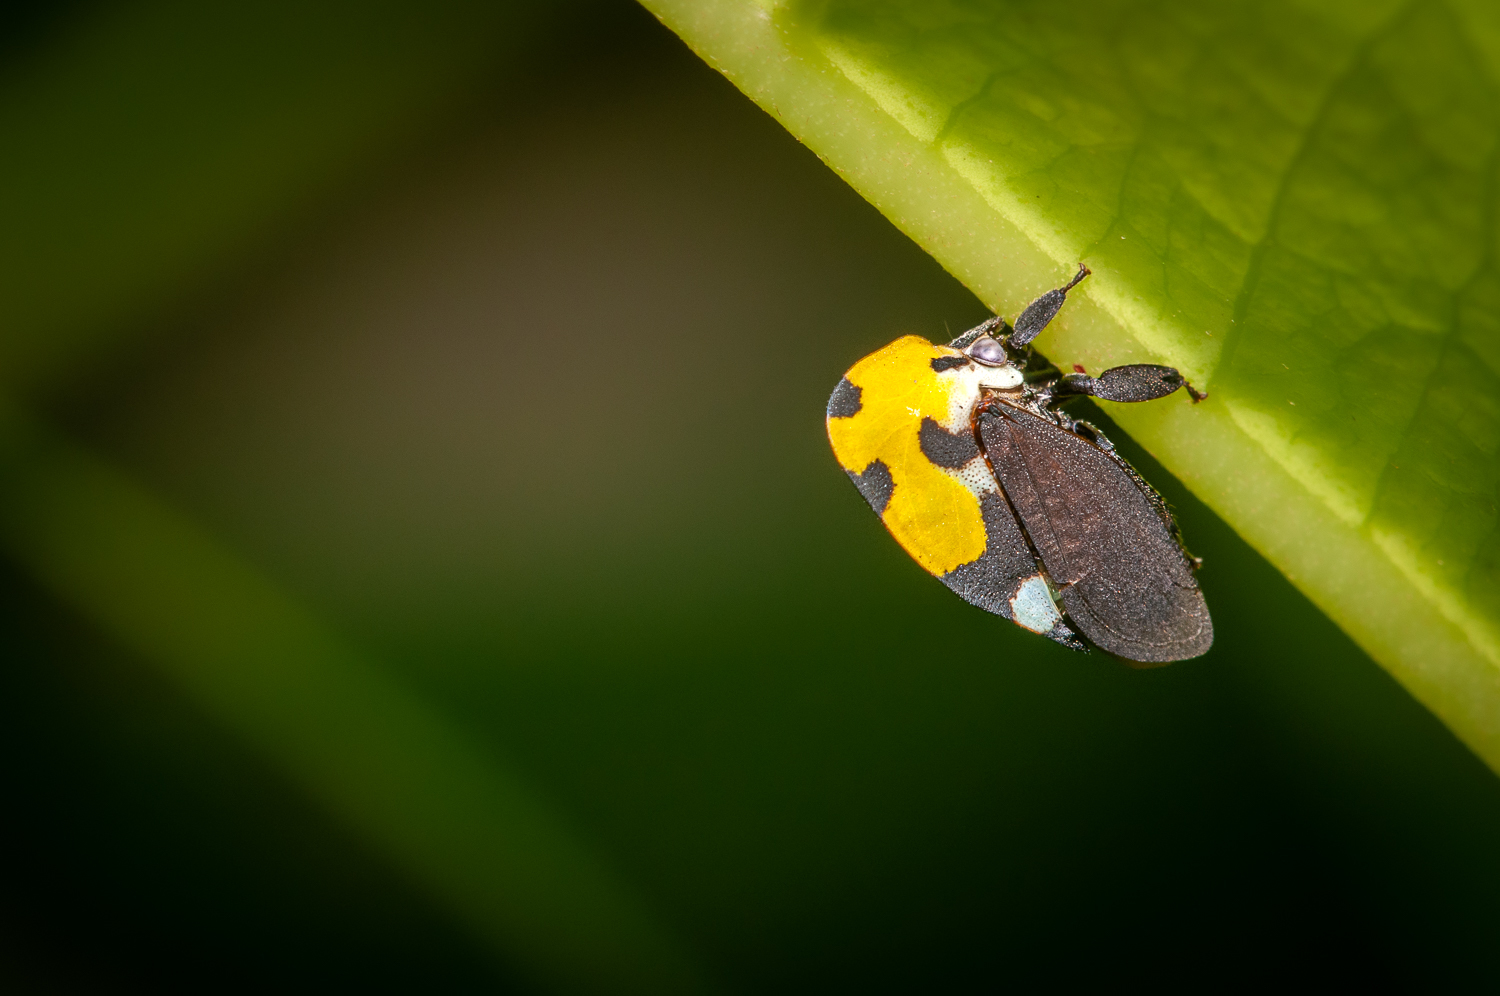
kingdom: Animalia
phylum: Arthropoda
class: Insecta
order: Hemiptera
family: Membracidae
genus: Membracis
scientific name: Membracis mexicana
